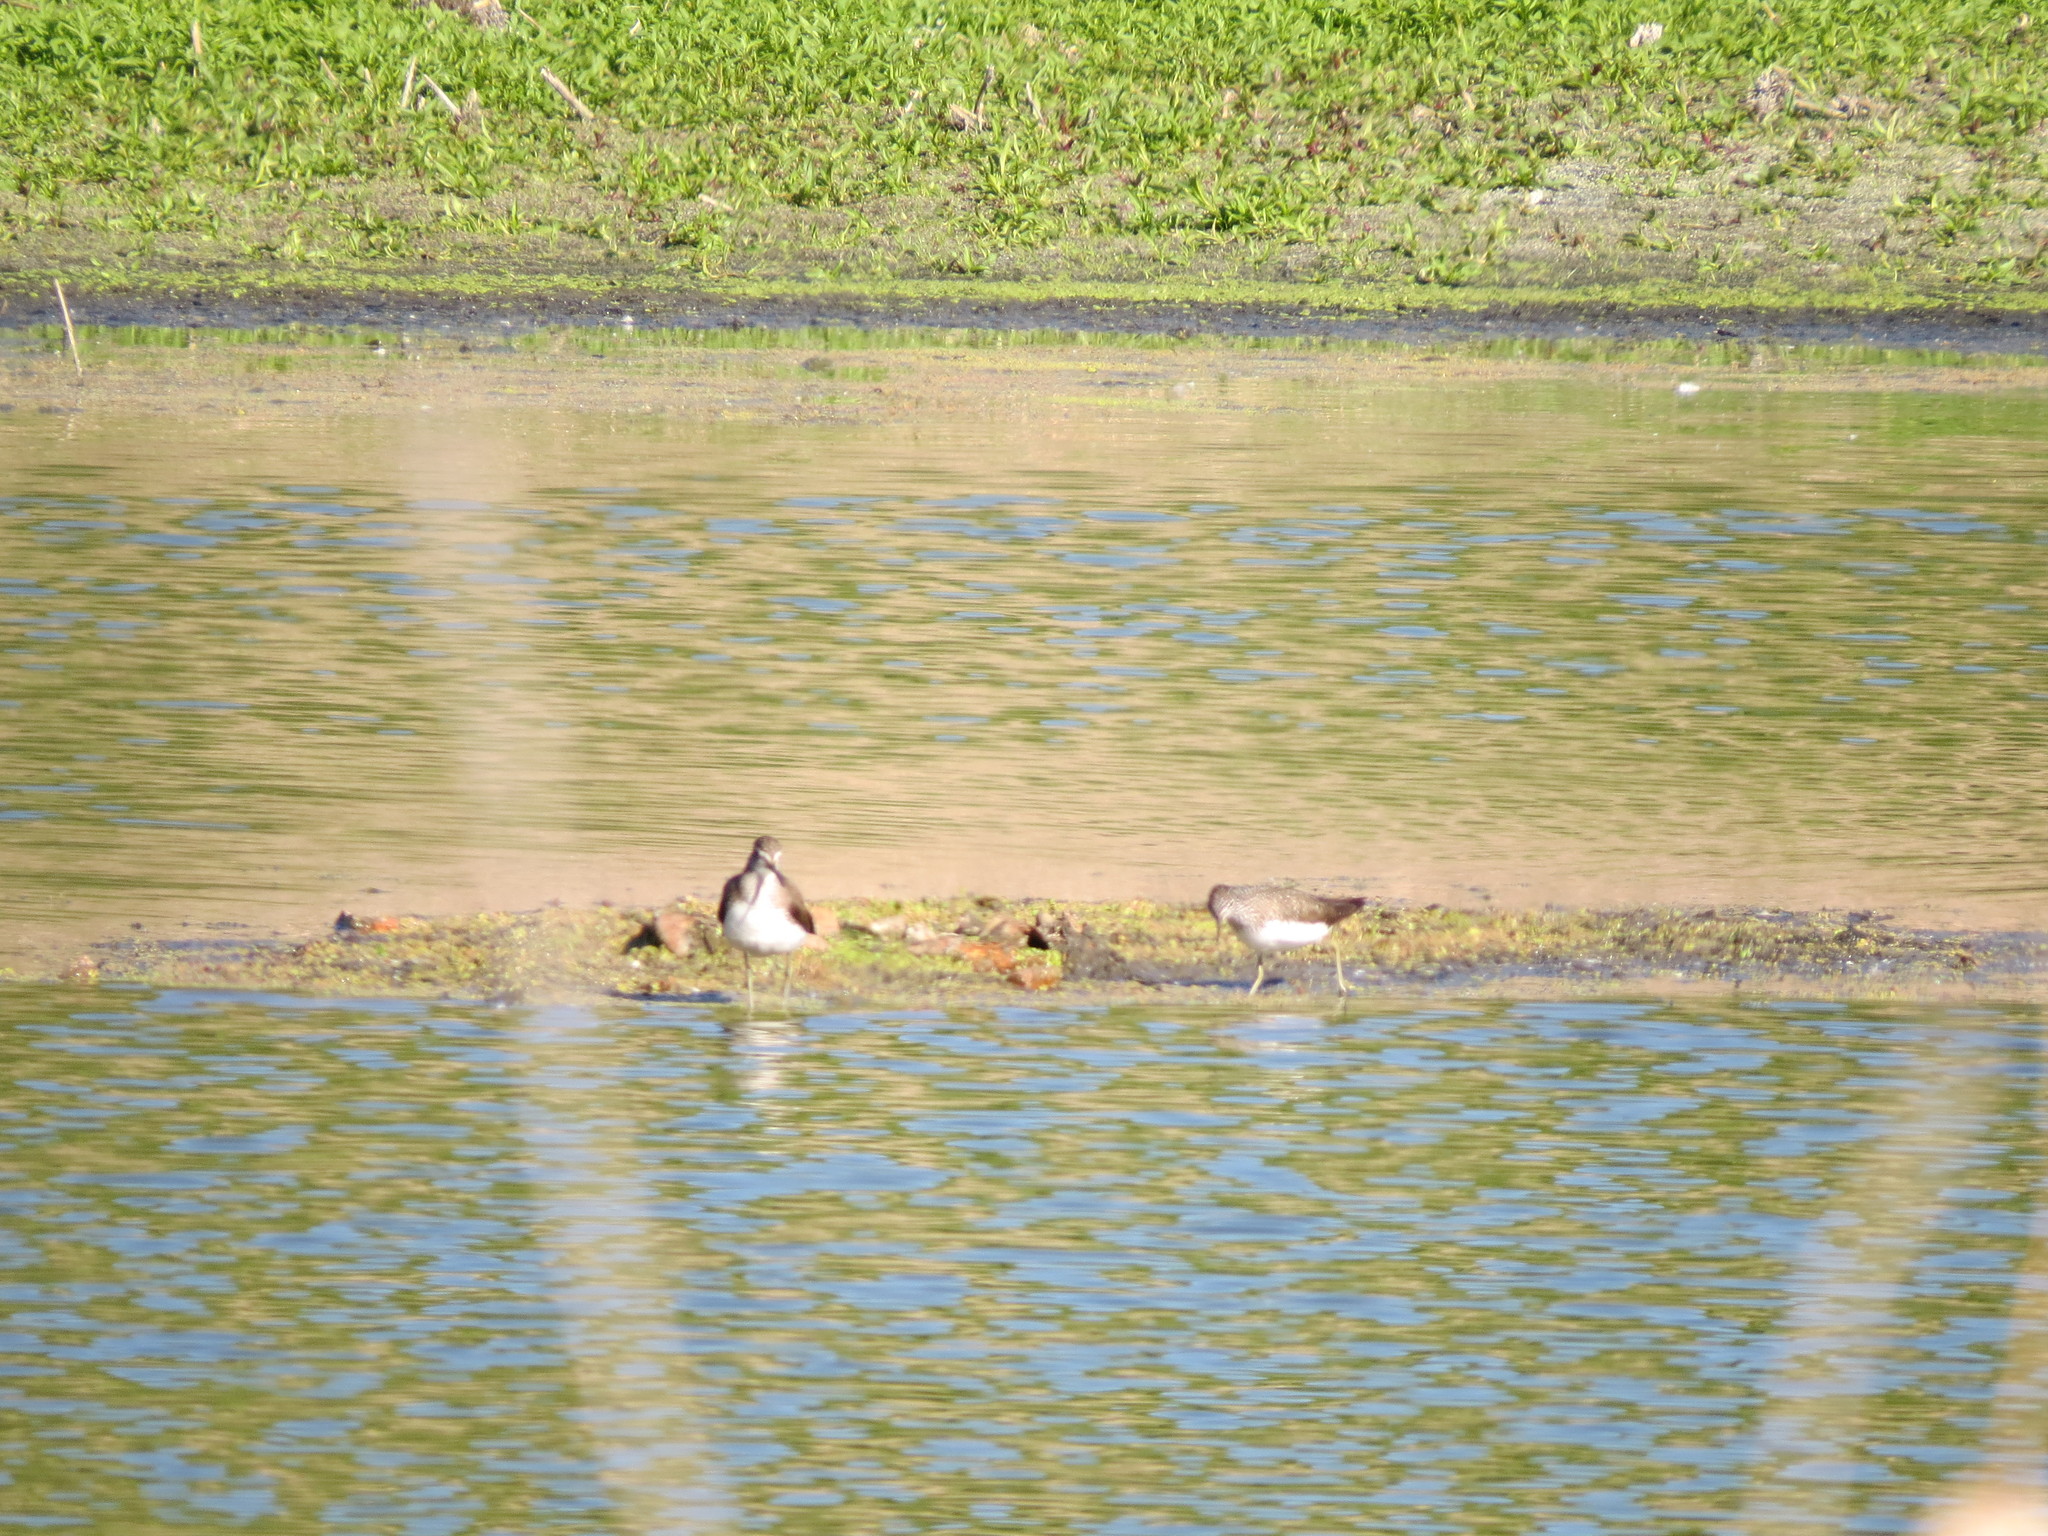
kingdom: Animalia
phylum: Chordata
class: Aves
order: Charadriiformes
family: Scolopacidae
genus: Tringa
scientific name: Tringa ochropus
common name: Green sandpiper
